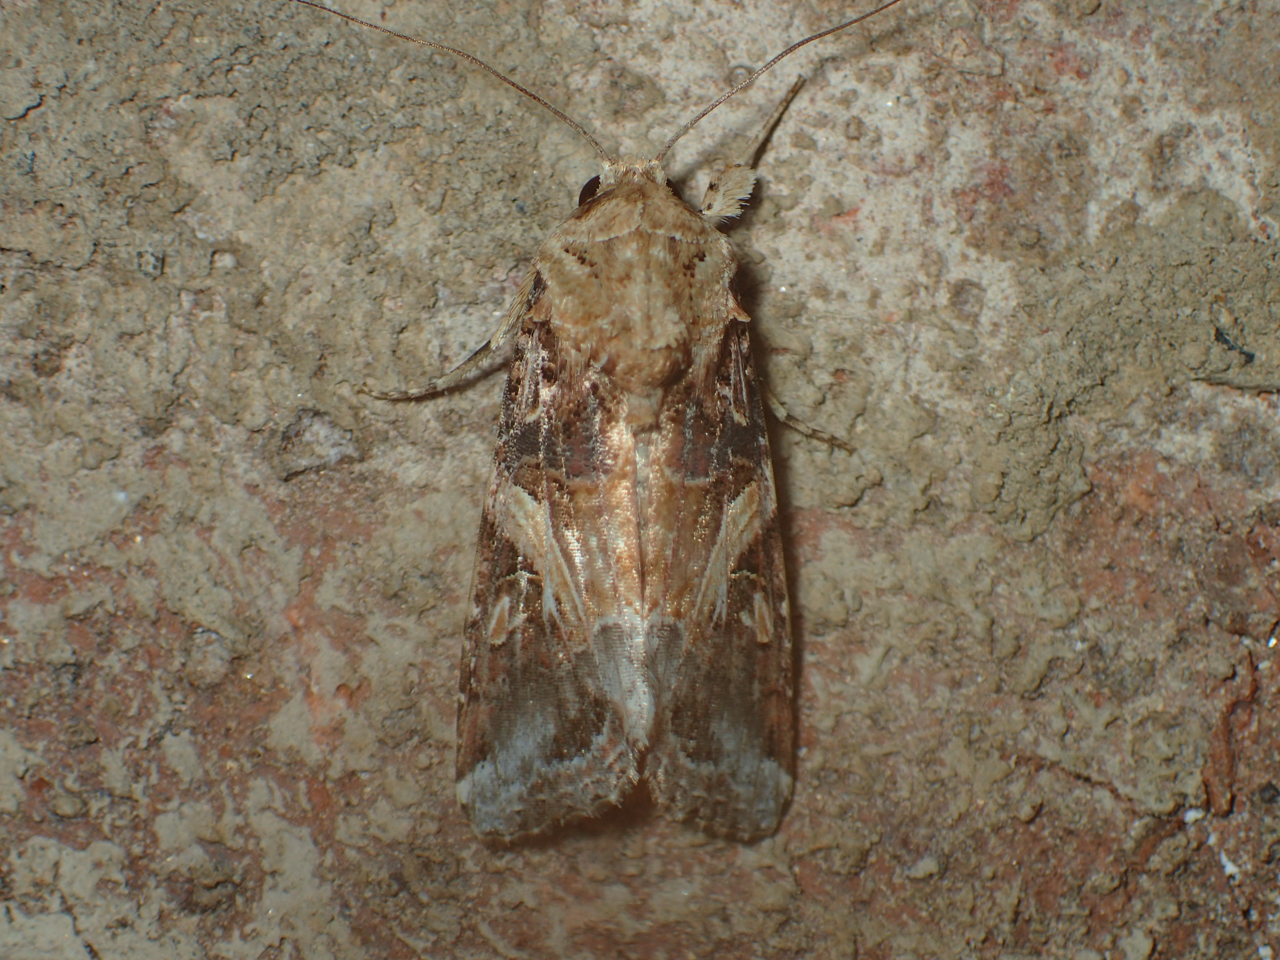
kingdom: Animalia
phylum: Arthropoda
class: Insecta
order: Lepidoptera
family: Noctuidae
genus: Spodoptera
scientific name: Spodoptera ornithogalli
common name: Yellow-striped armyworm
